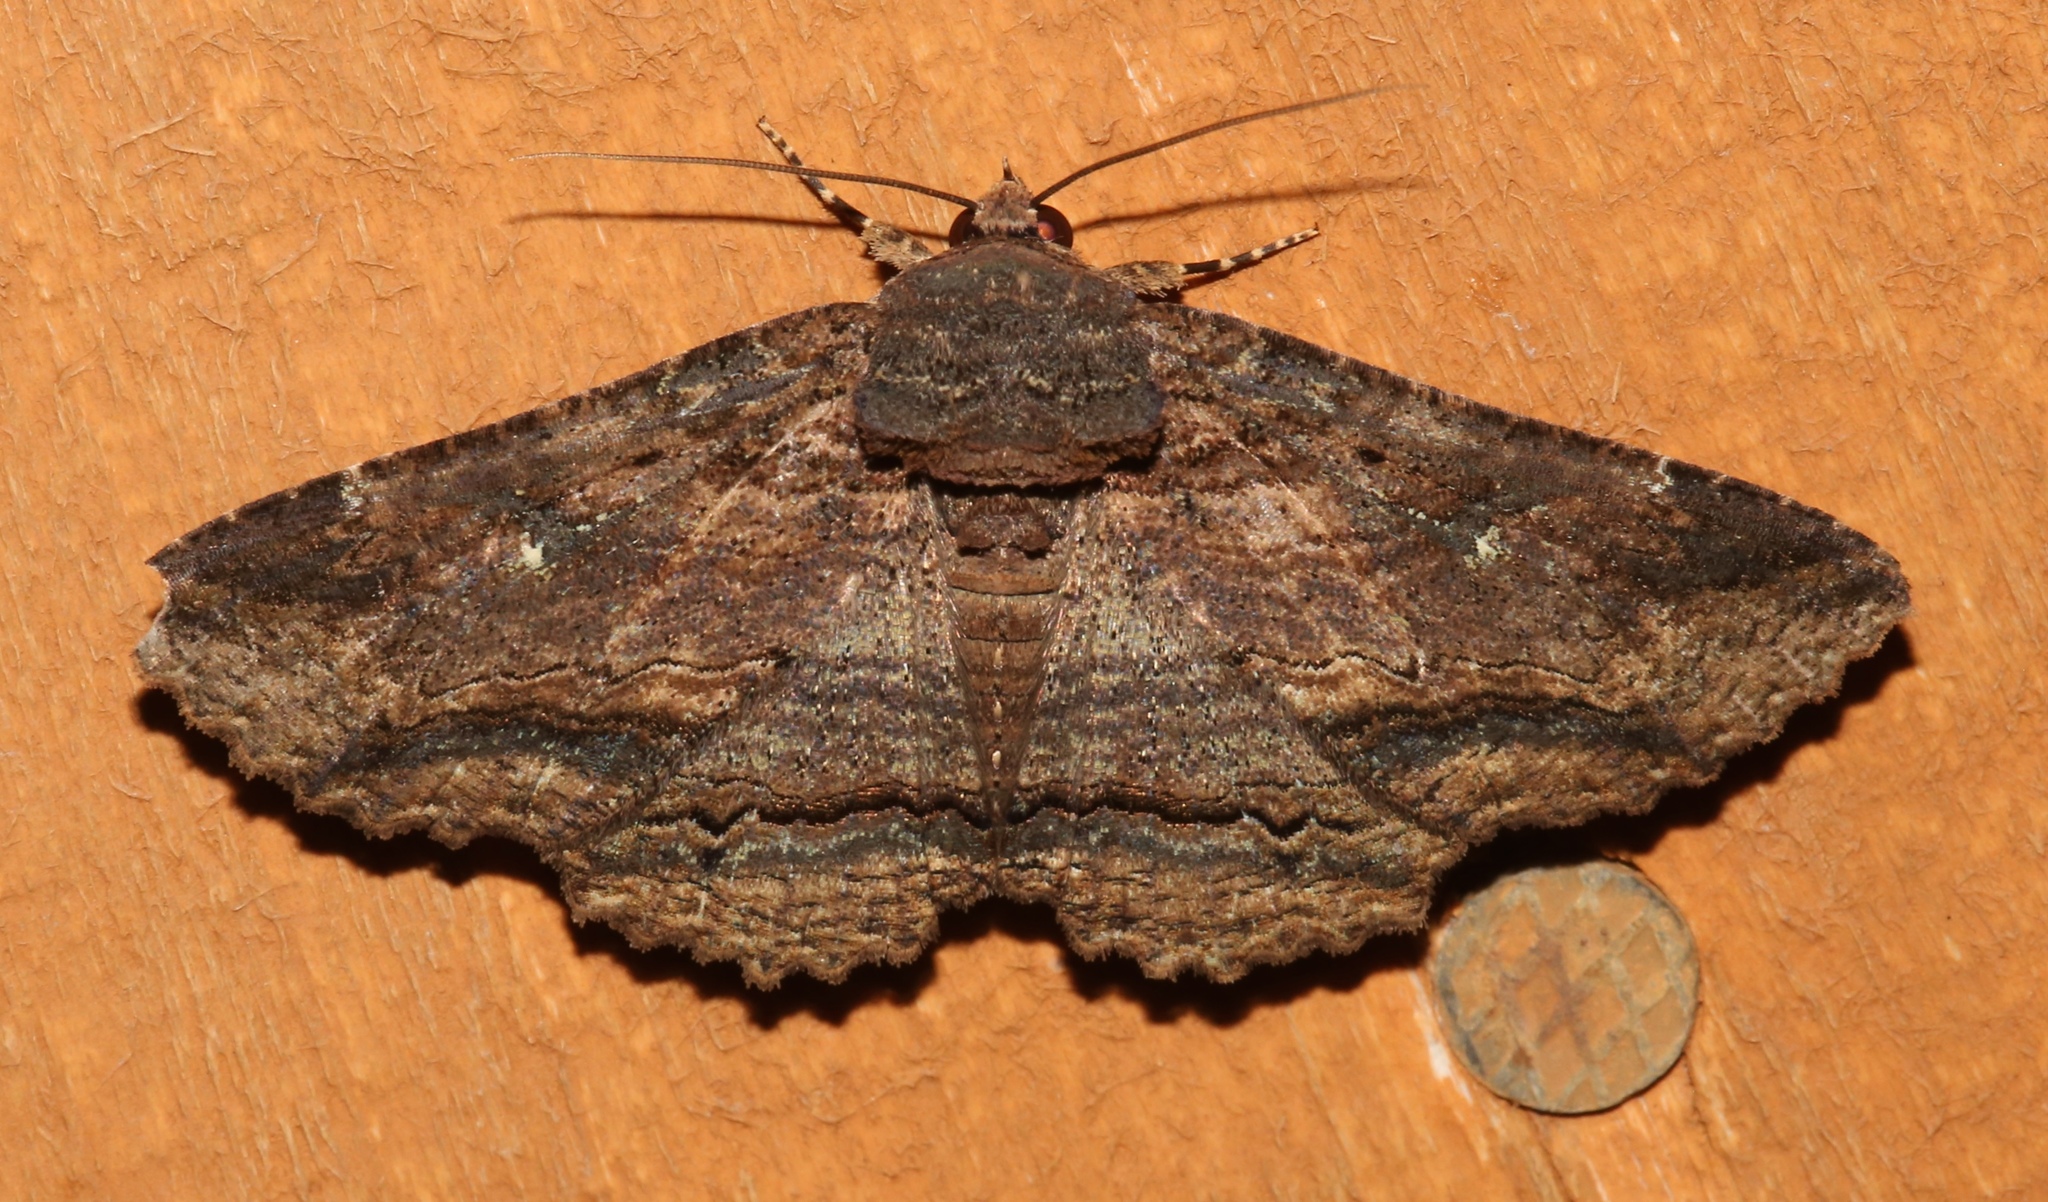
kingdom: Animalia
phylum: Arthropoda
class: Insecta
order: Lepidoptera
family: Erebidae
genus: Zale
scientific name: Zale lunata
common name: Lunate zale moth
